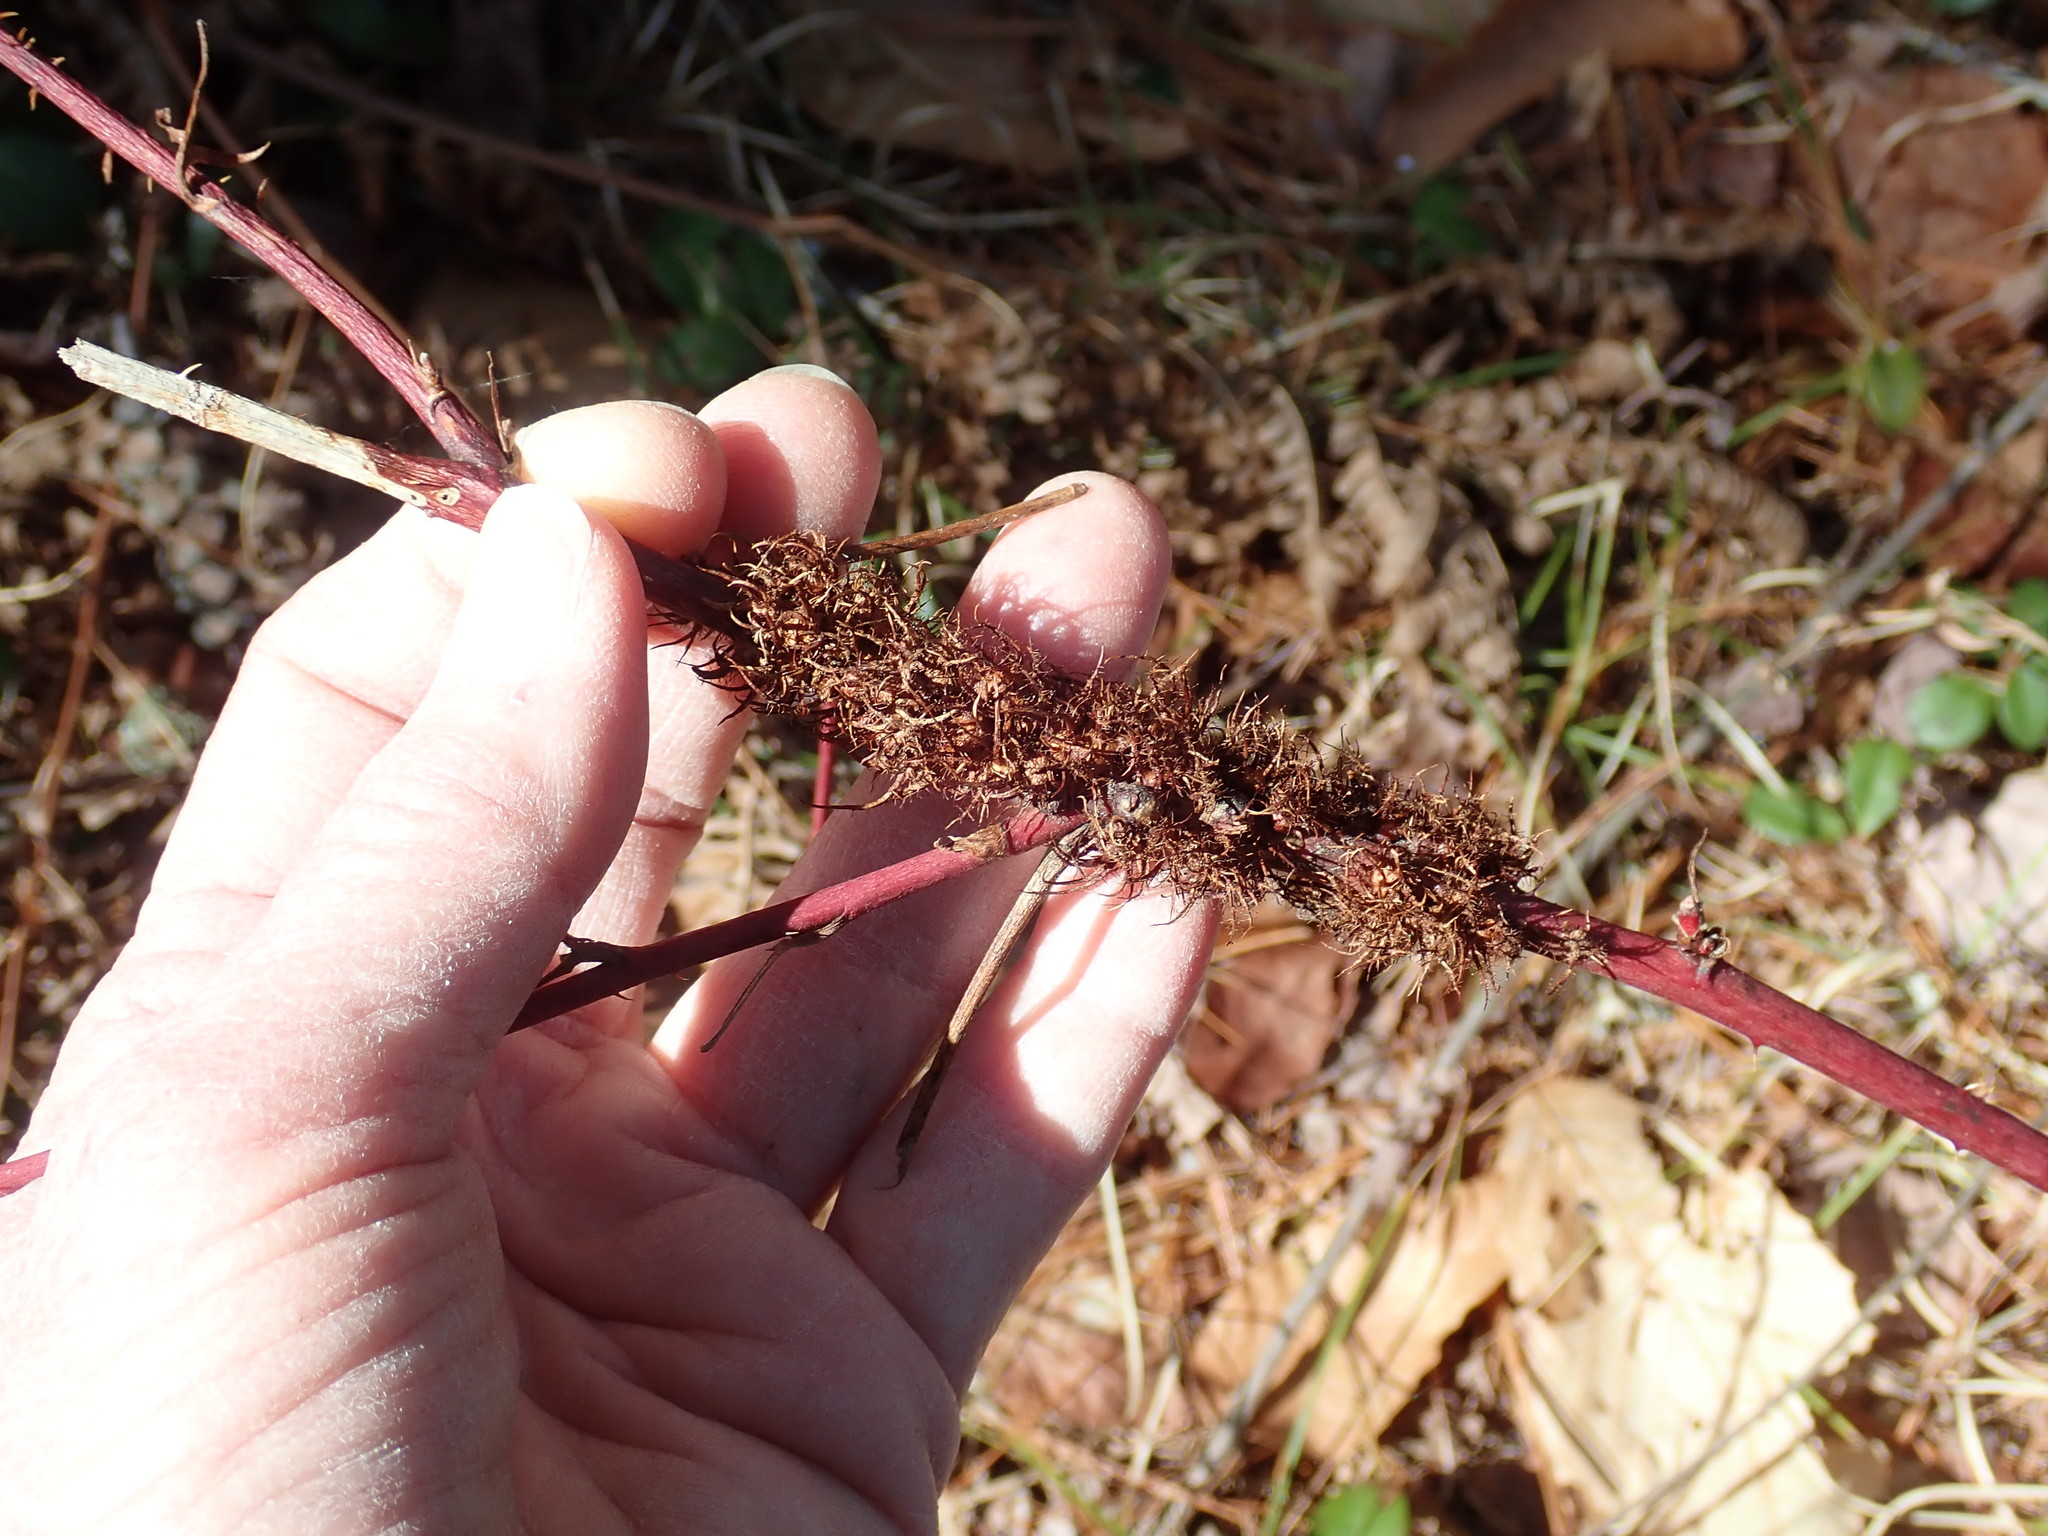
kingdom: Animalia
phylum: Arthropoda
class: Insecta
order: Hymenoptera
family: Cynipidae
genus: Diastrophus
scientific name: Diastrophus
